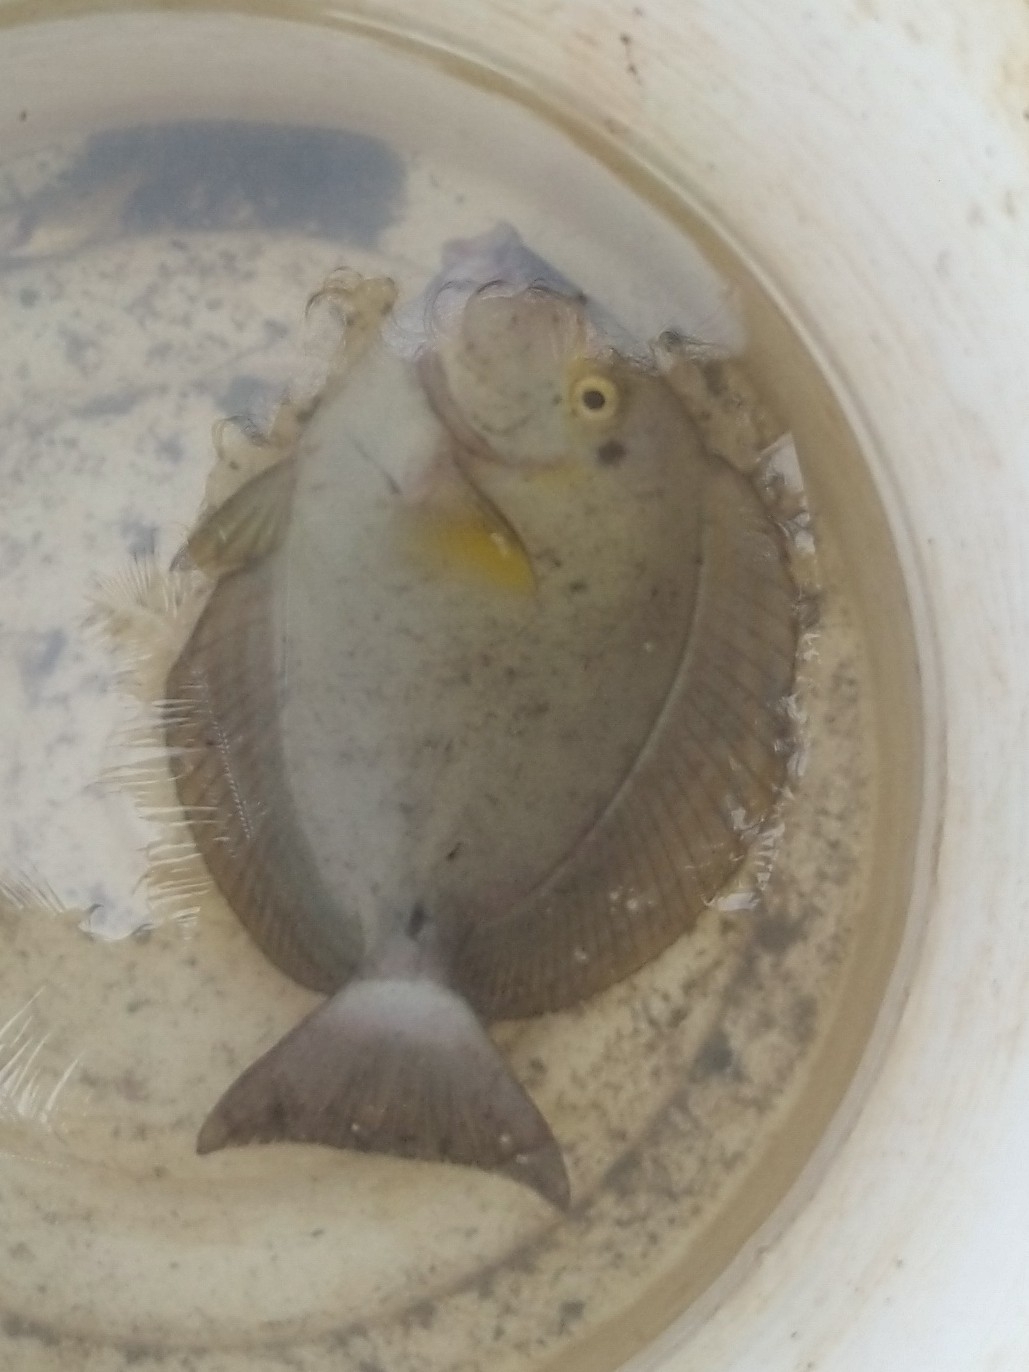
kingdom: Animalia
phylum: Chordata
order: Perciformes
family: Acanthuridae
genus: Acanthurus
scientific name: Acanthurus xanthopterus
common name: Cuvier's surgeonfish
